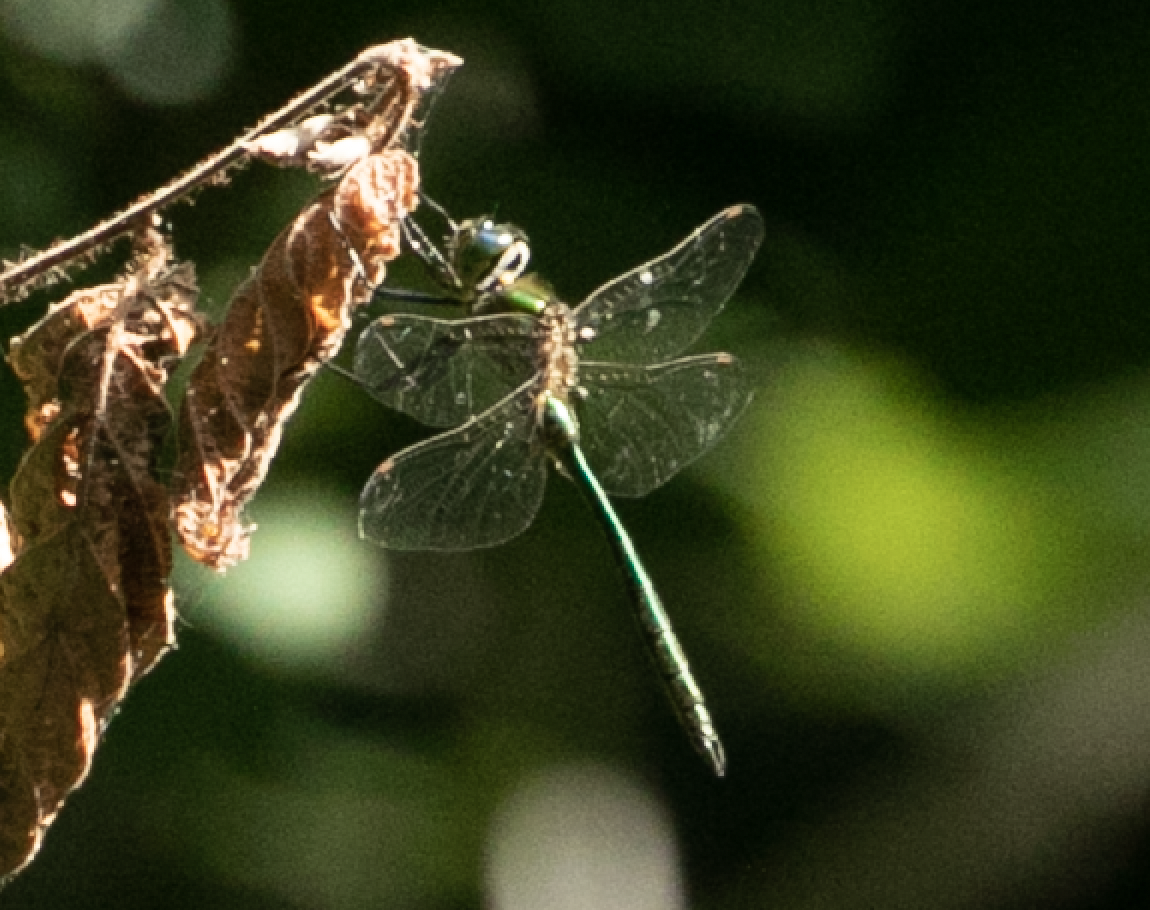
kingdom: Animalia
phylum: Arthropoda
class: Insecta
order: Odonata
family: Corduliidae
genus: Somatochlora
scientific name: Somatochlora metallica
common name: Brilliant emerald
